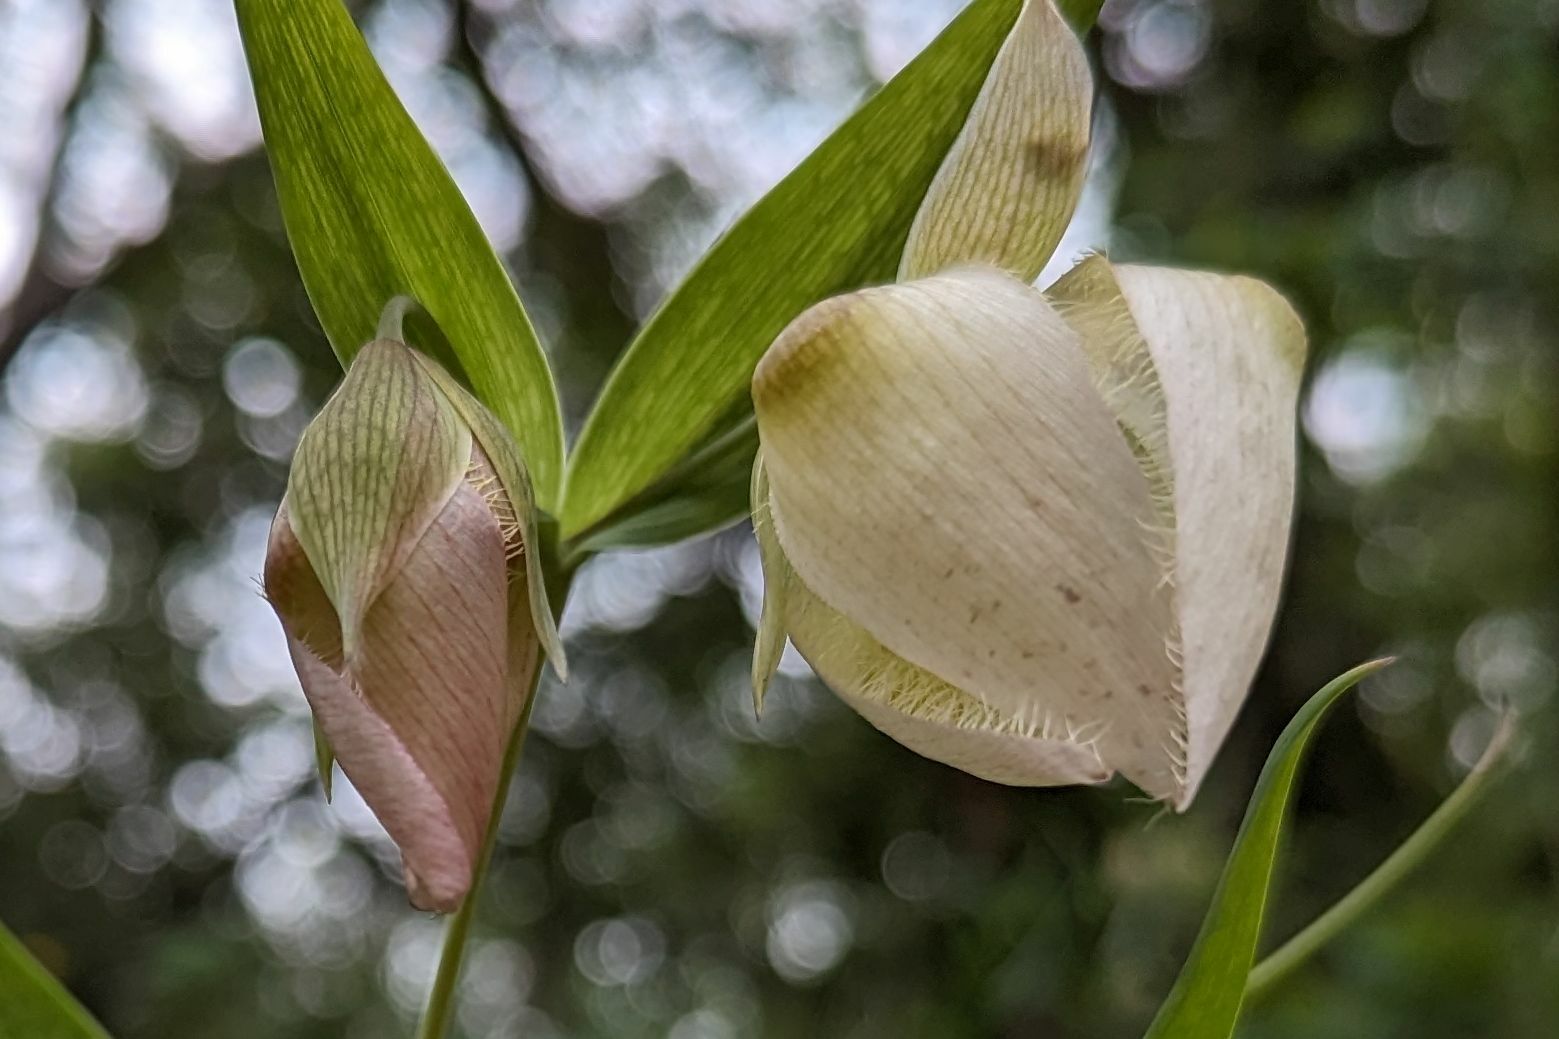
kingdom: Plantae
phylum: Tracheophyta
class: Liliopsida
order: Liliales
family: Liliaceae
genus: Calochortus
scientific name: Calochortus albus
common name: Fairy-lantern
